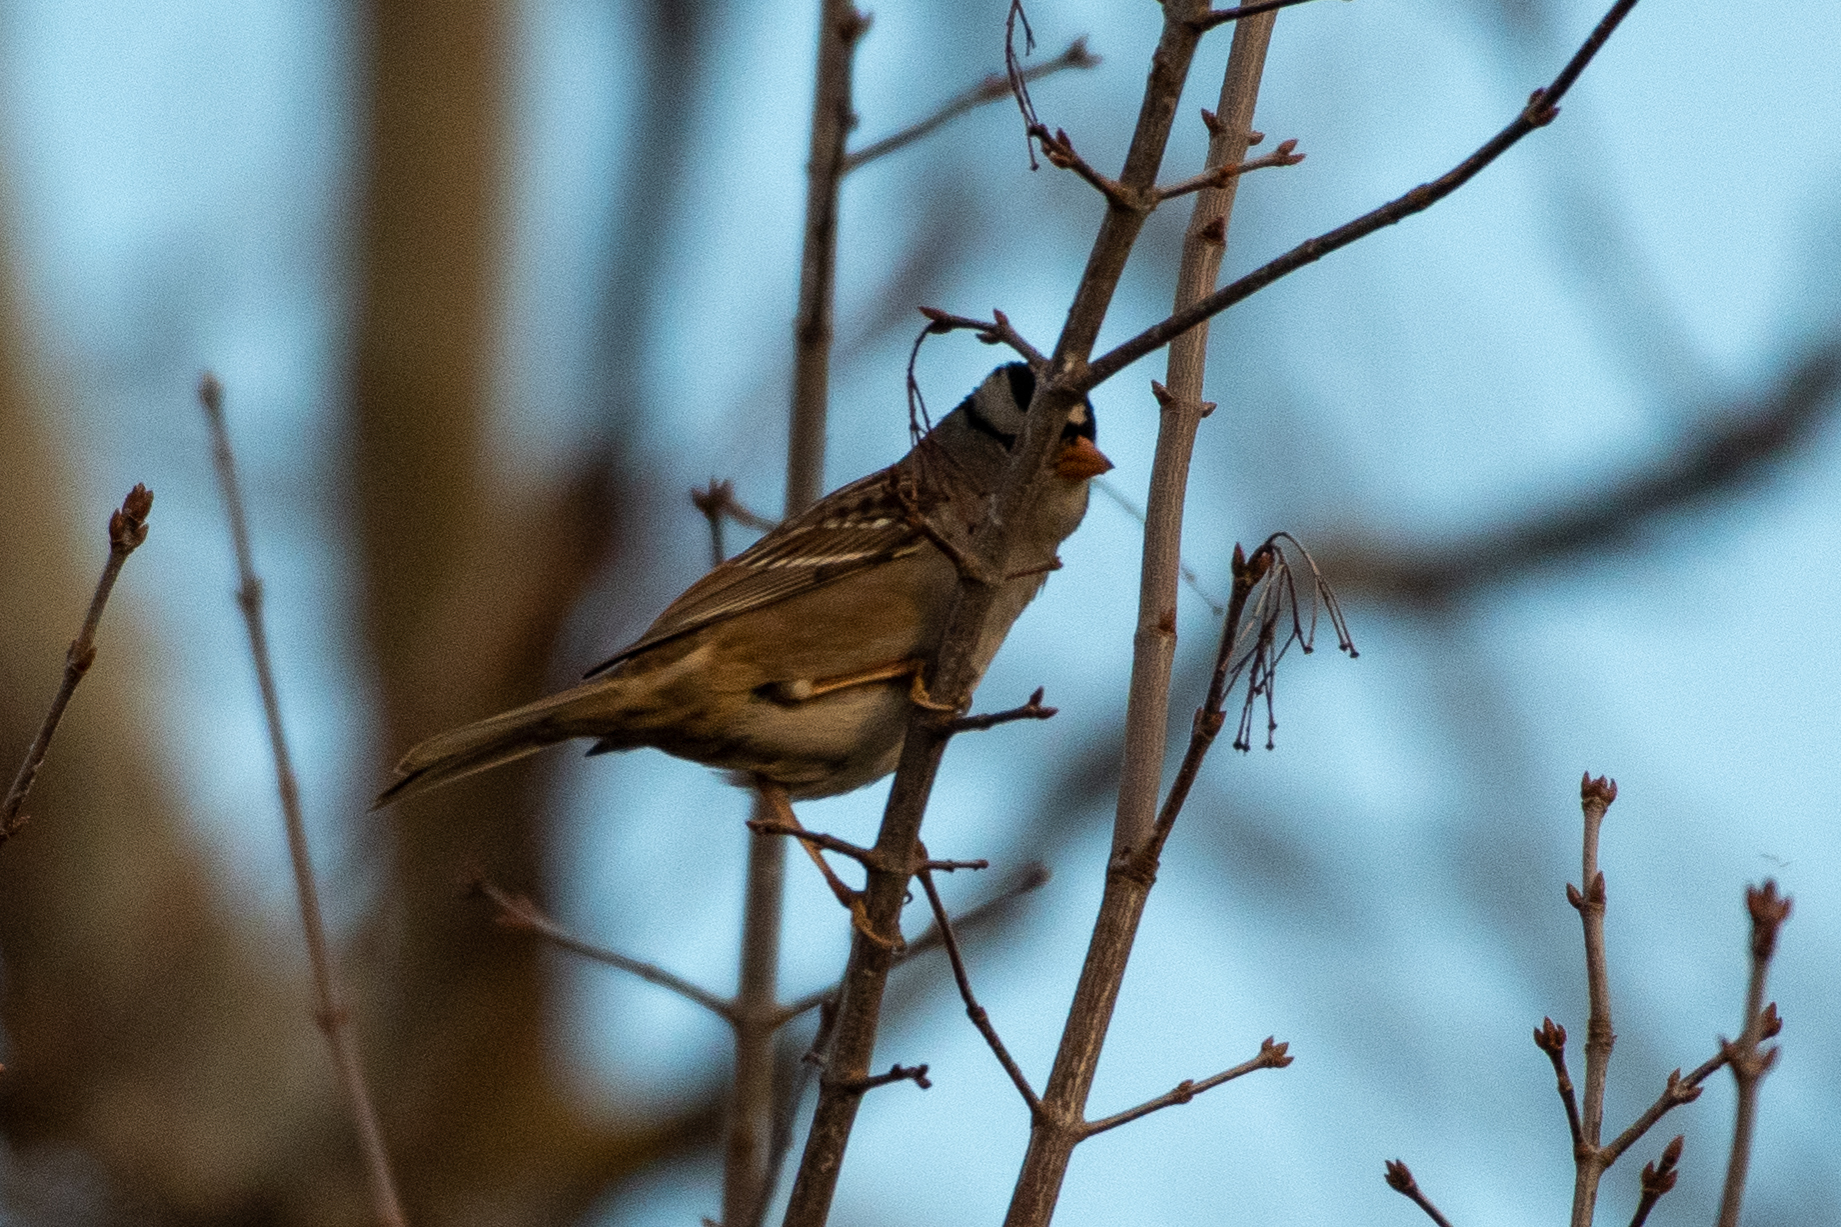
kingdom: Animalia
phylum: Chordata
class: Aves
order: Passeriformes
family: Passerellidae
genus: Zonotrichia
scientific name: Zonotrichia leucophrys
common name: White-crowned sparrow
